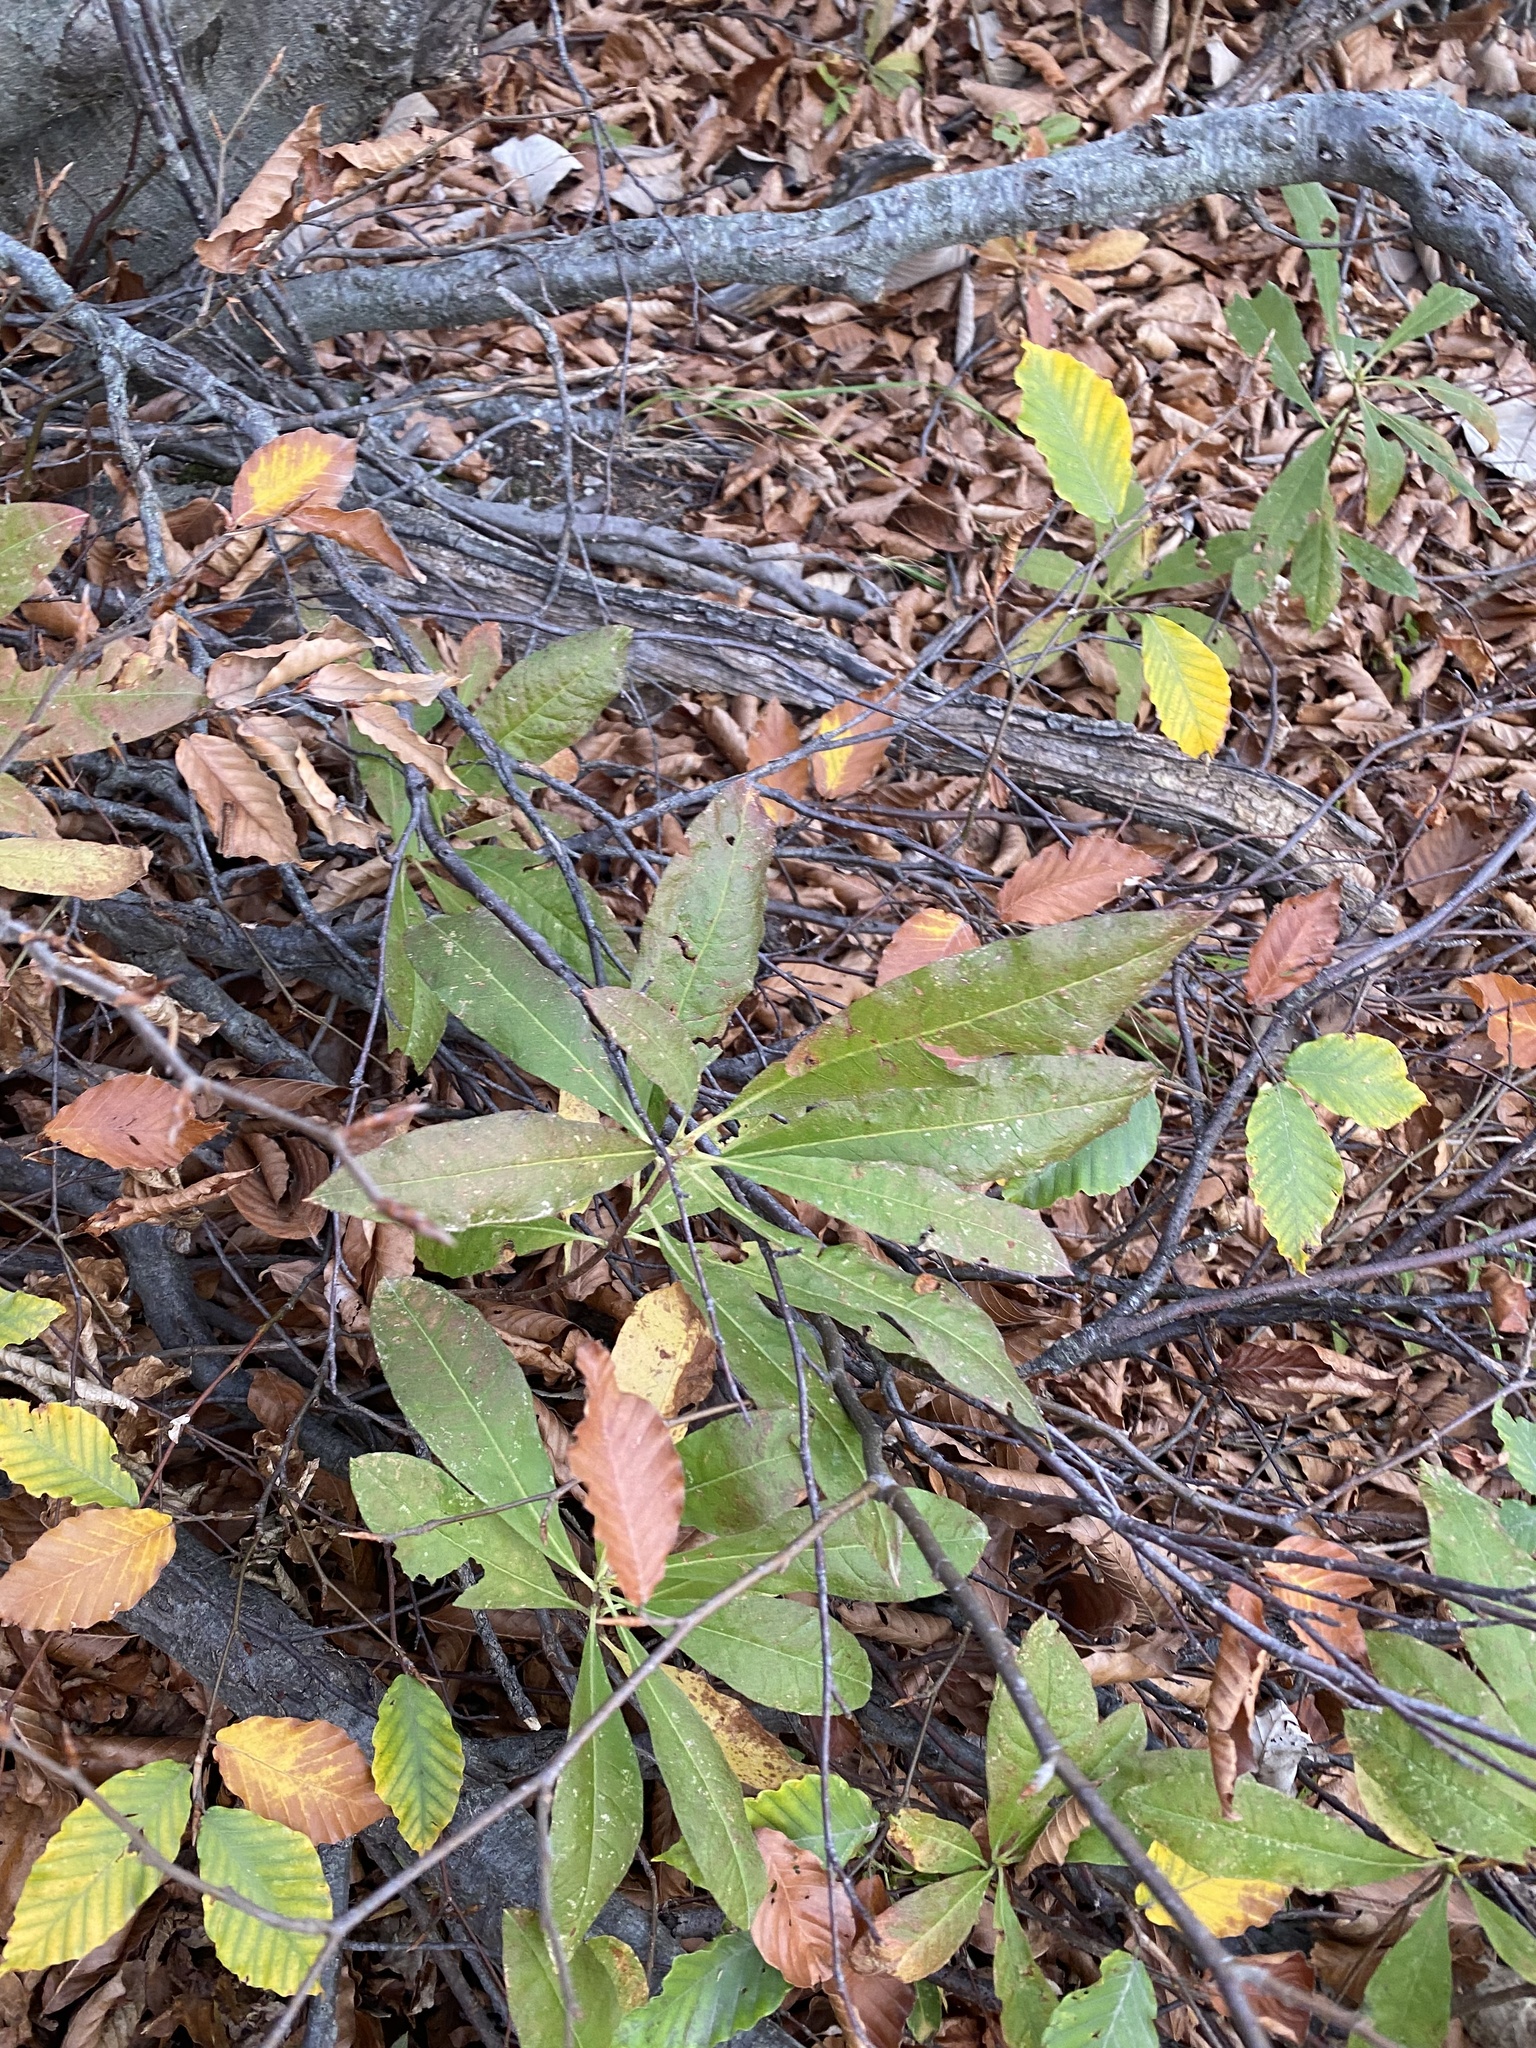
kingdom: Plantae
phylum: Tracheophyta
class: Magnoliopsida
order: Ericales
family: Ericaceae
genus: Rhododendron
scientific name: Rhododendron luteum
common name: Yellow azalea
